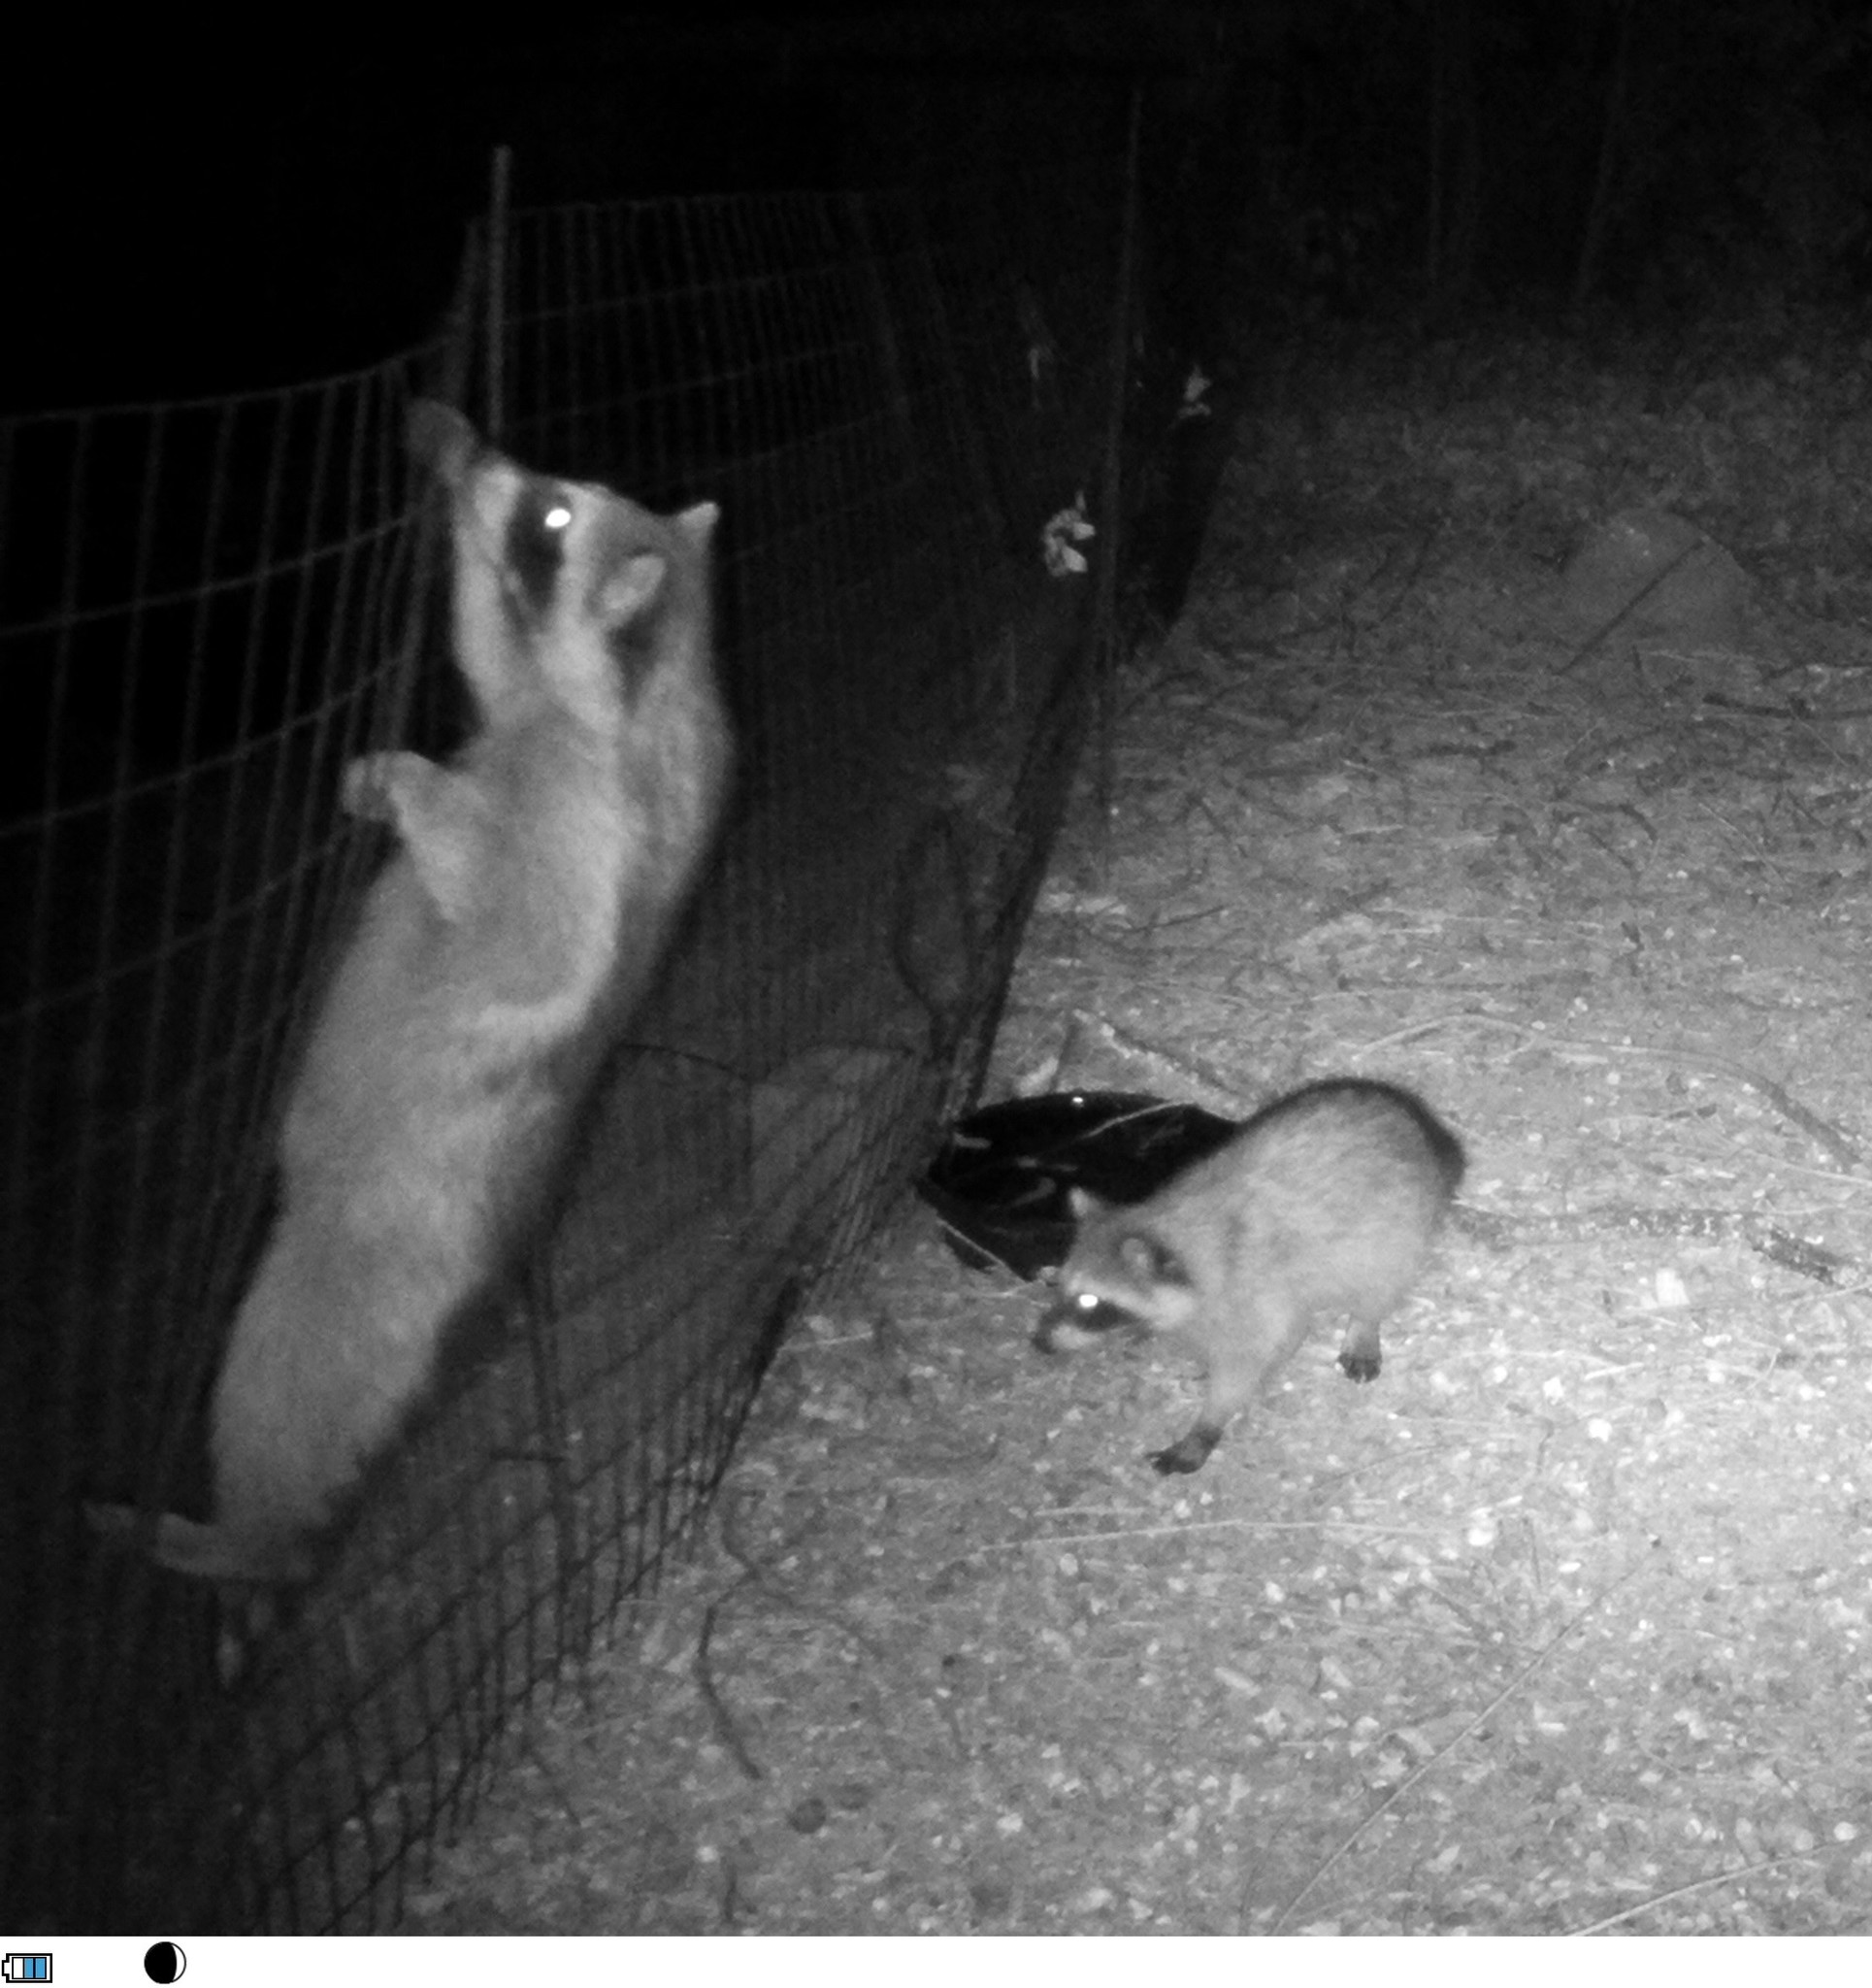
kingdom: Animalia
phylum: Chordata
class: Mammalia
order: Carnivora
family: Procyonidae
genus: Procyon
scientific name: Procyon lotor
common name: Raccoon
